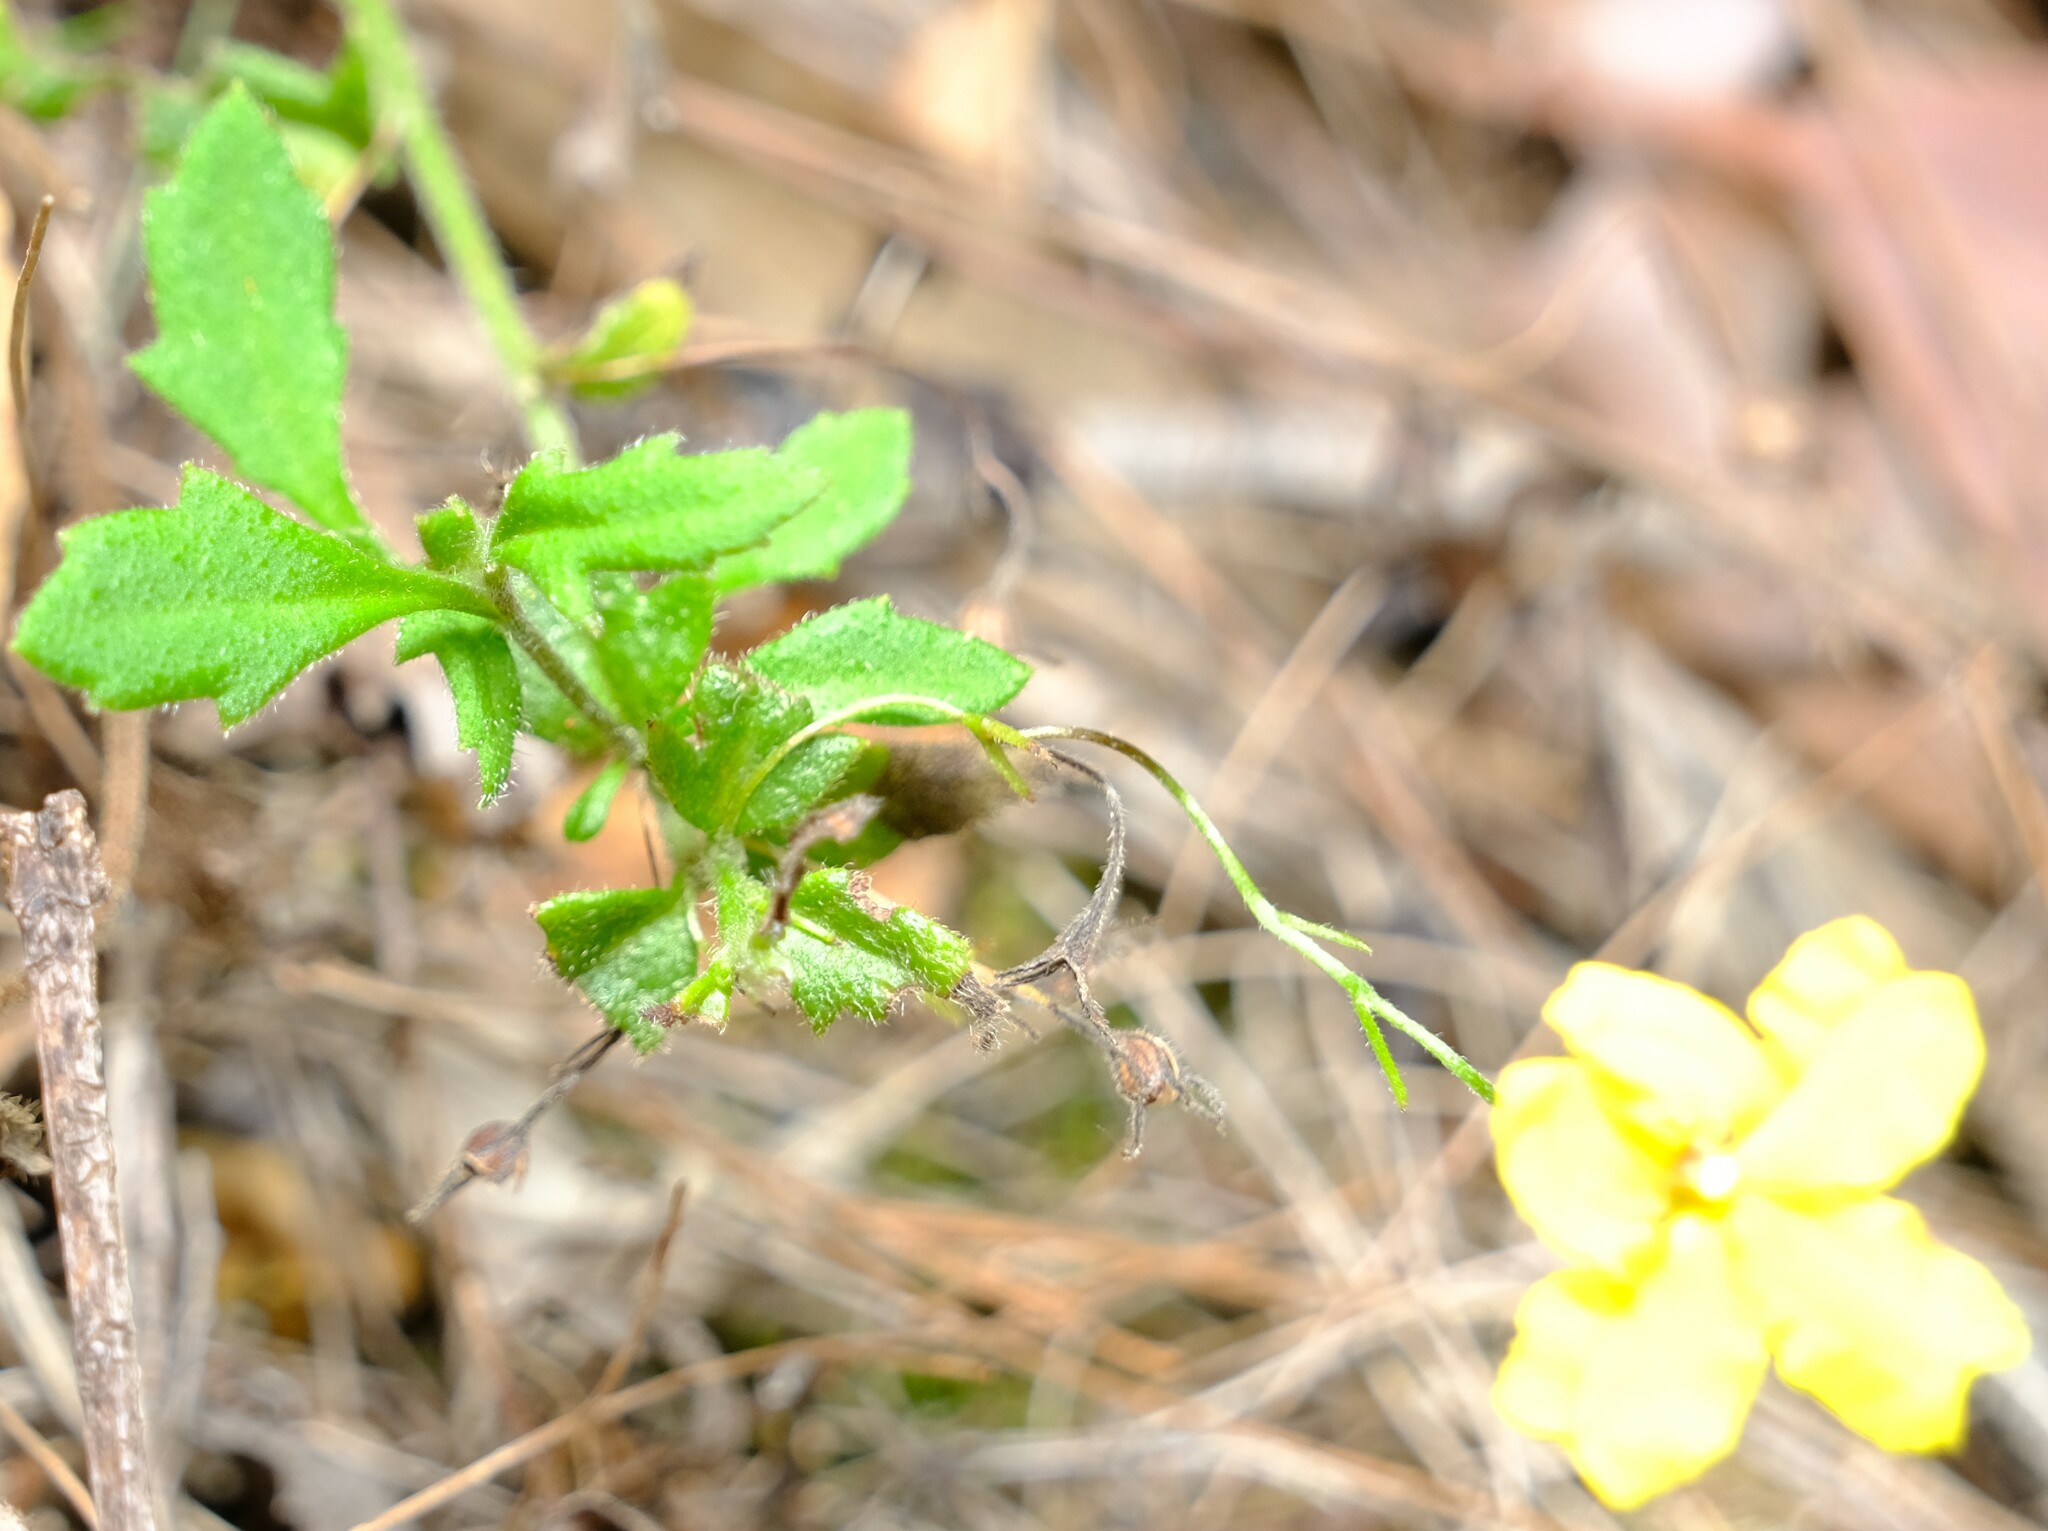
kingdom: Plantae
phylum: Tracheophyta
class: Magnoliopsida
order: Asterales
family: Goodeniaceae
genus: Goodenia
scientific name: Goodenia heterophylla
